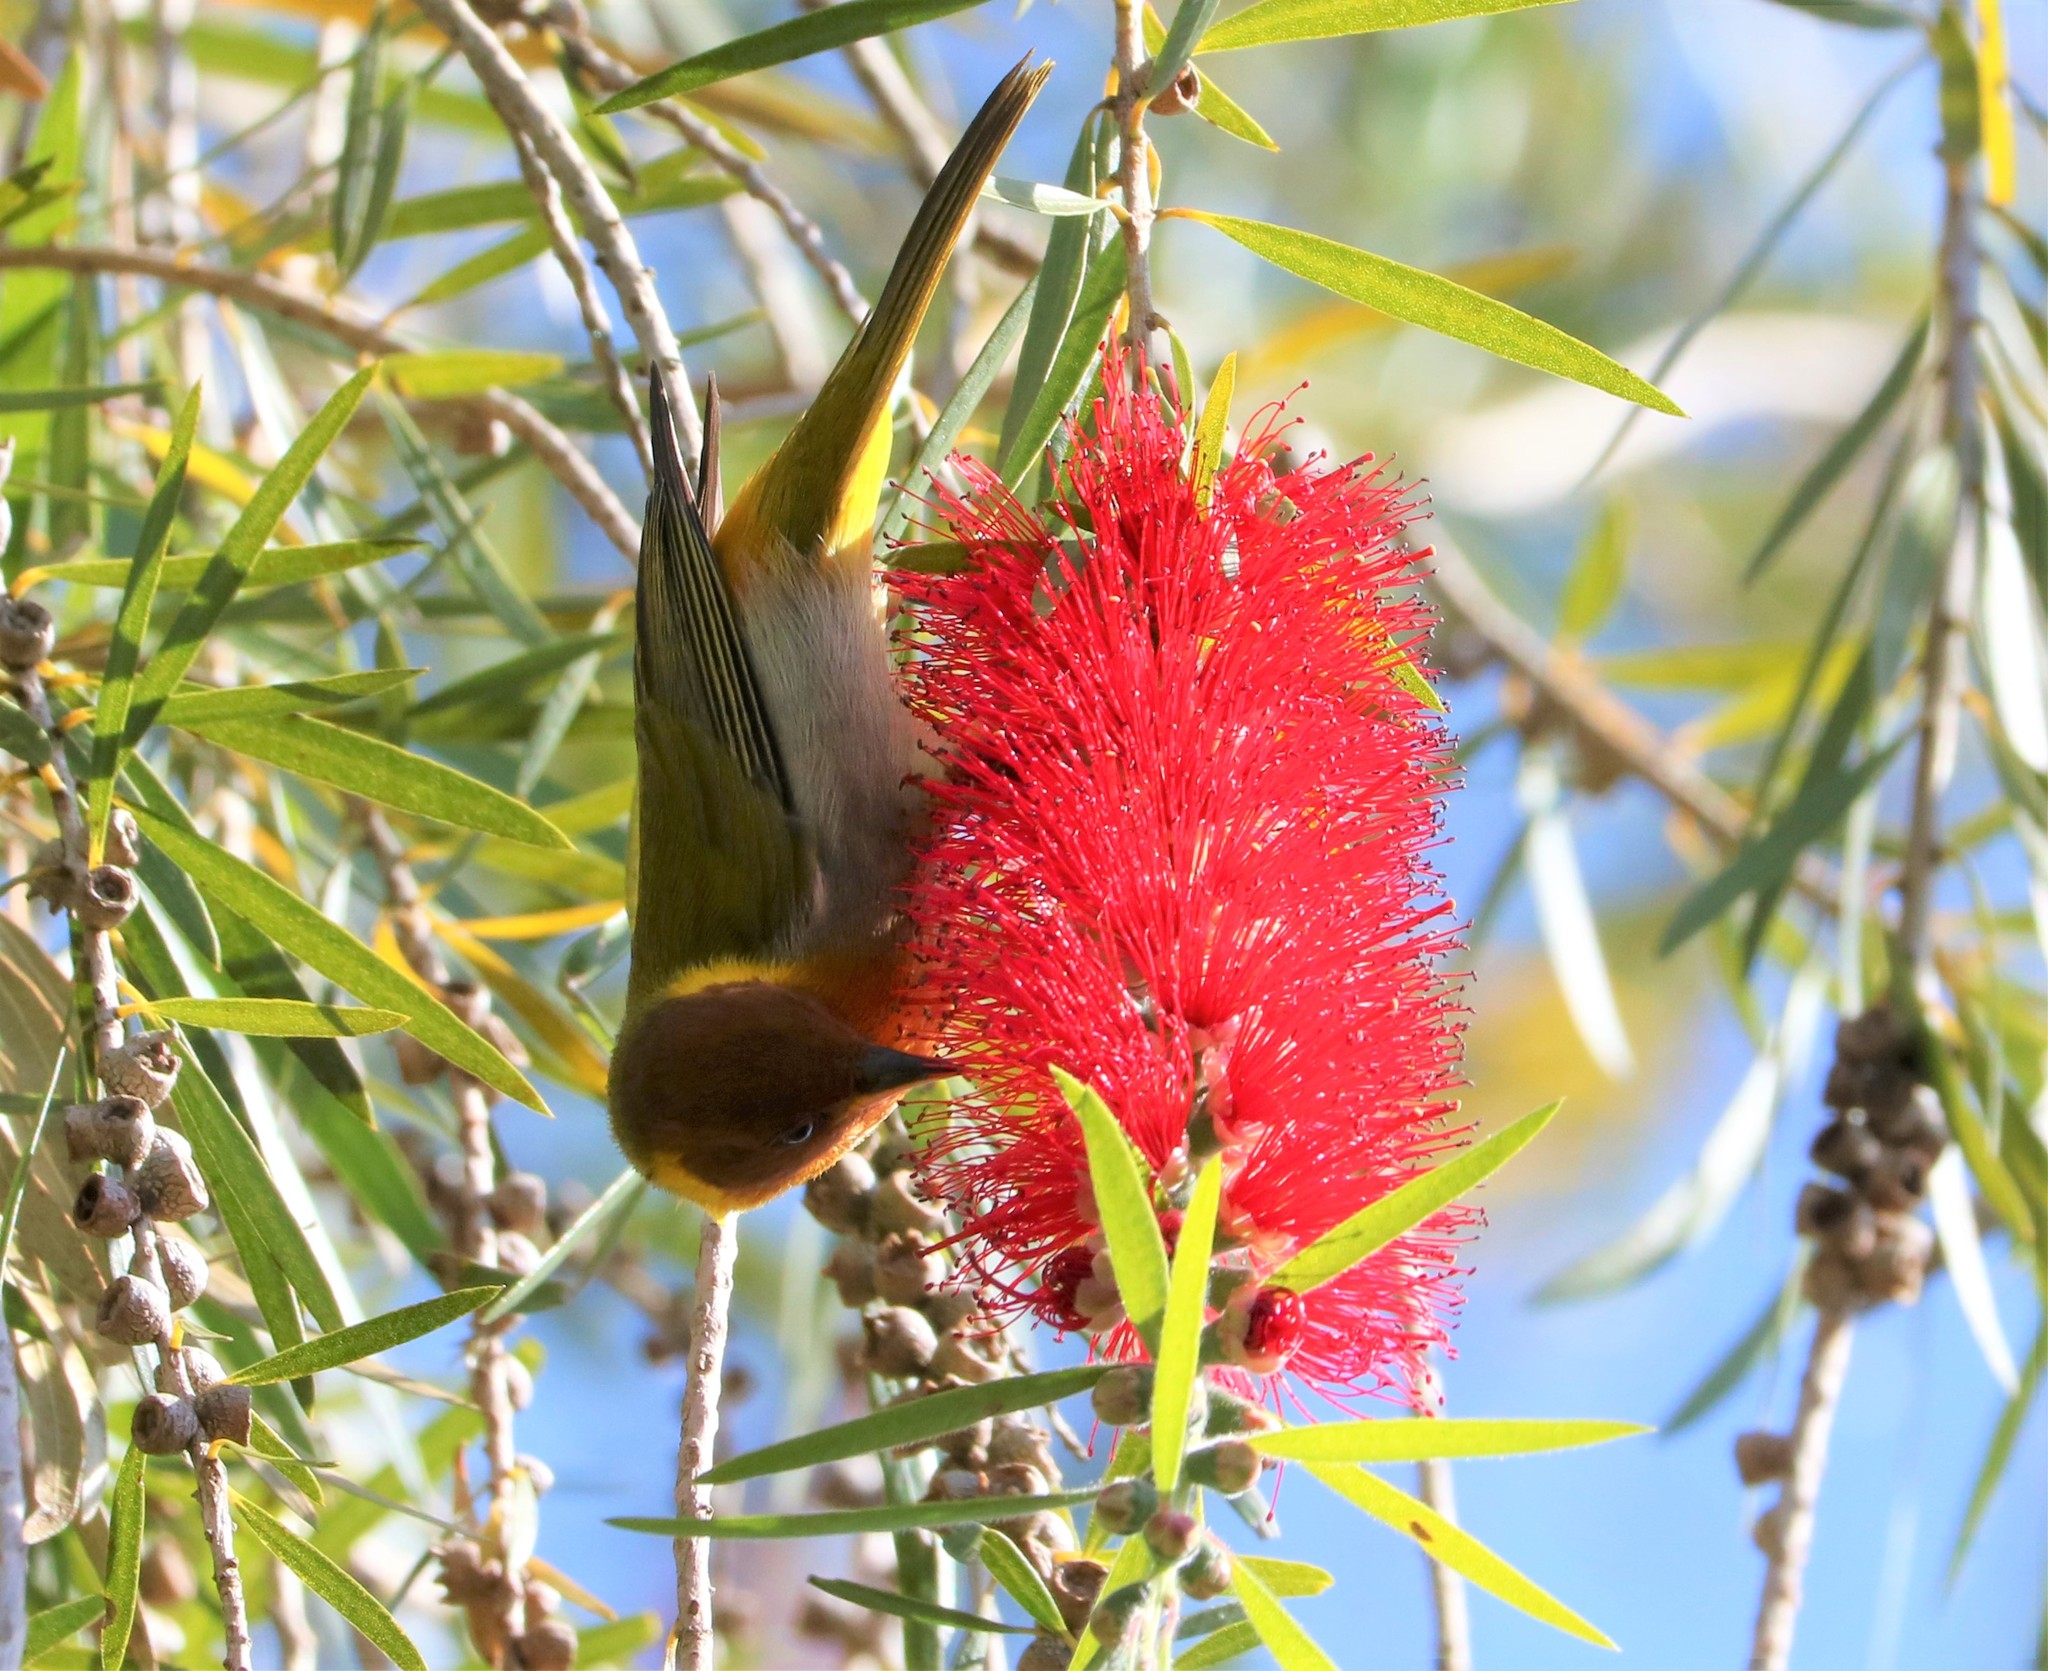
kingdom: Plantae
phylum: Tracheophyta
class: Magnoliopsida
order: Myrtales
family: Myrtaceae
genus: Callistemon
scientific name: Callistemon viminalis
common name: Drooping bottlebrush
